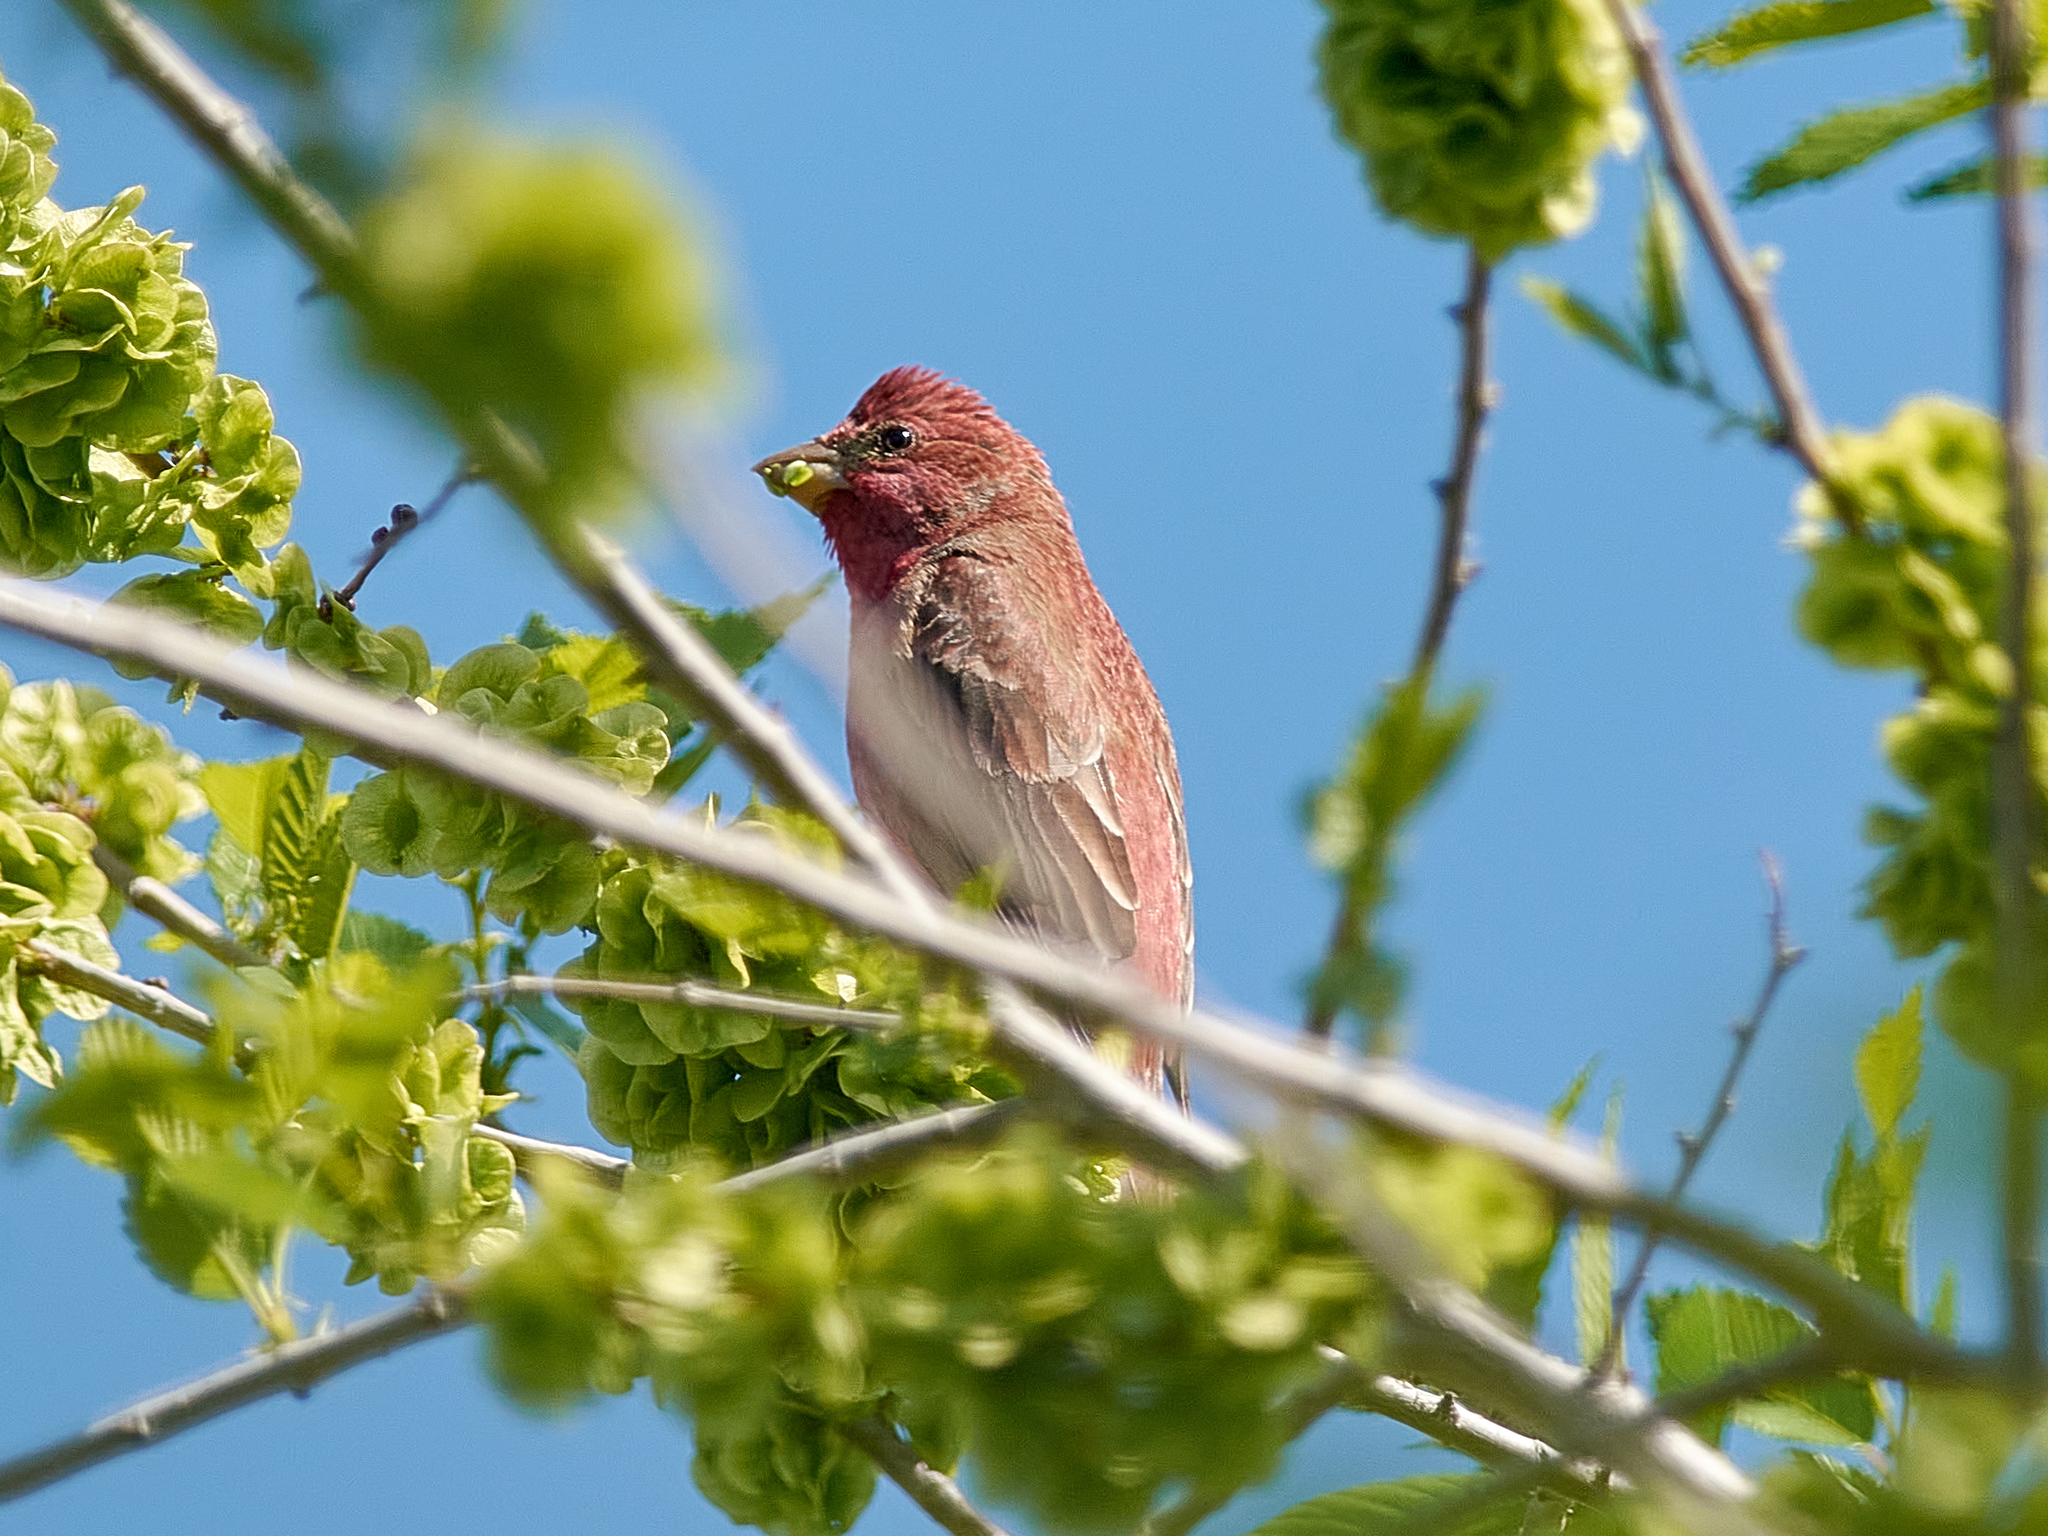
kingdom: Animalia
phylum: Chordata
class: Aves
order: Passeriformes
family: Fringillidae
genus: Carpodacus
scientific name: Carpodacus erythrinus
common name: Common rosefinch
